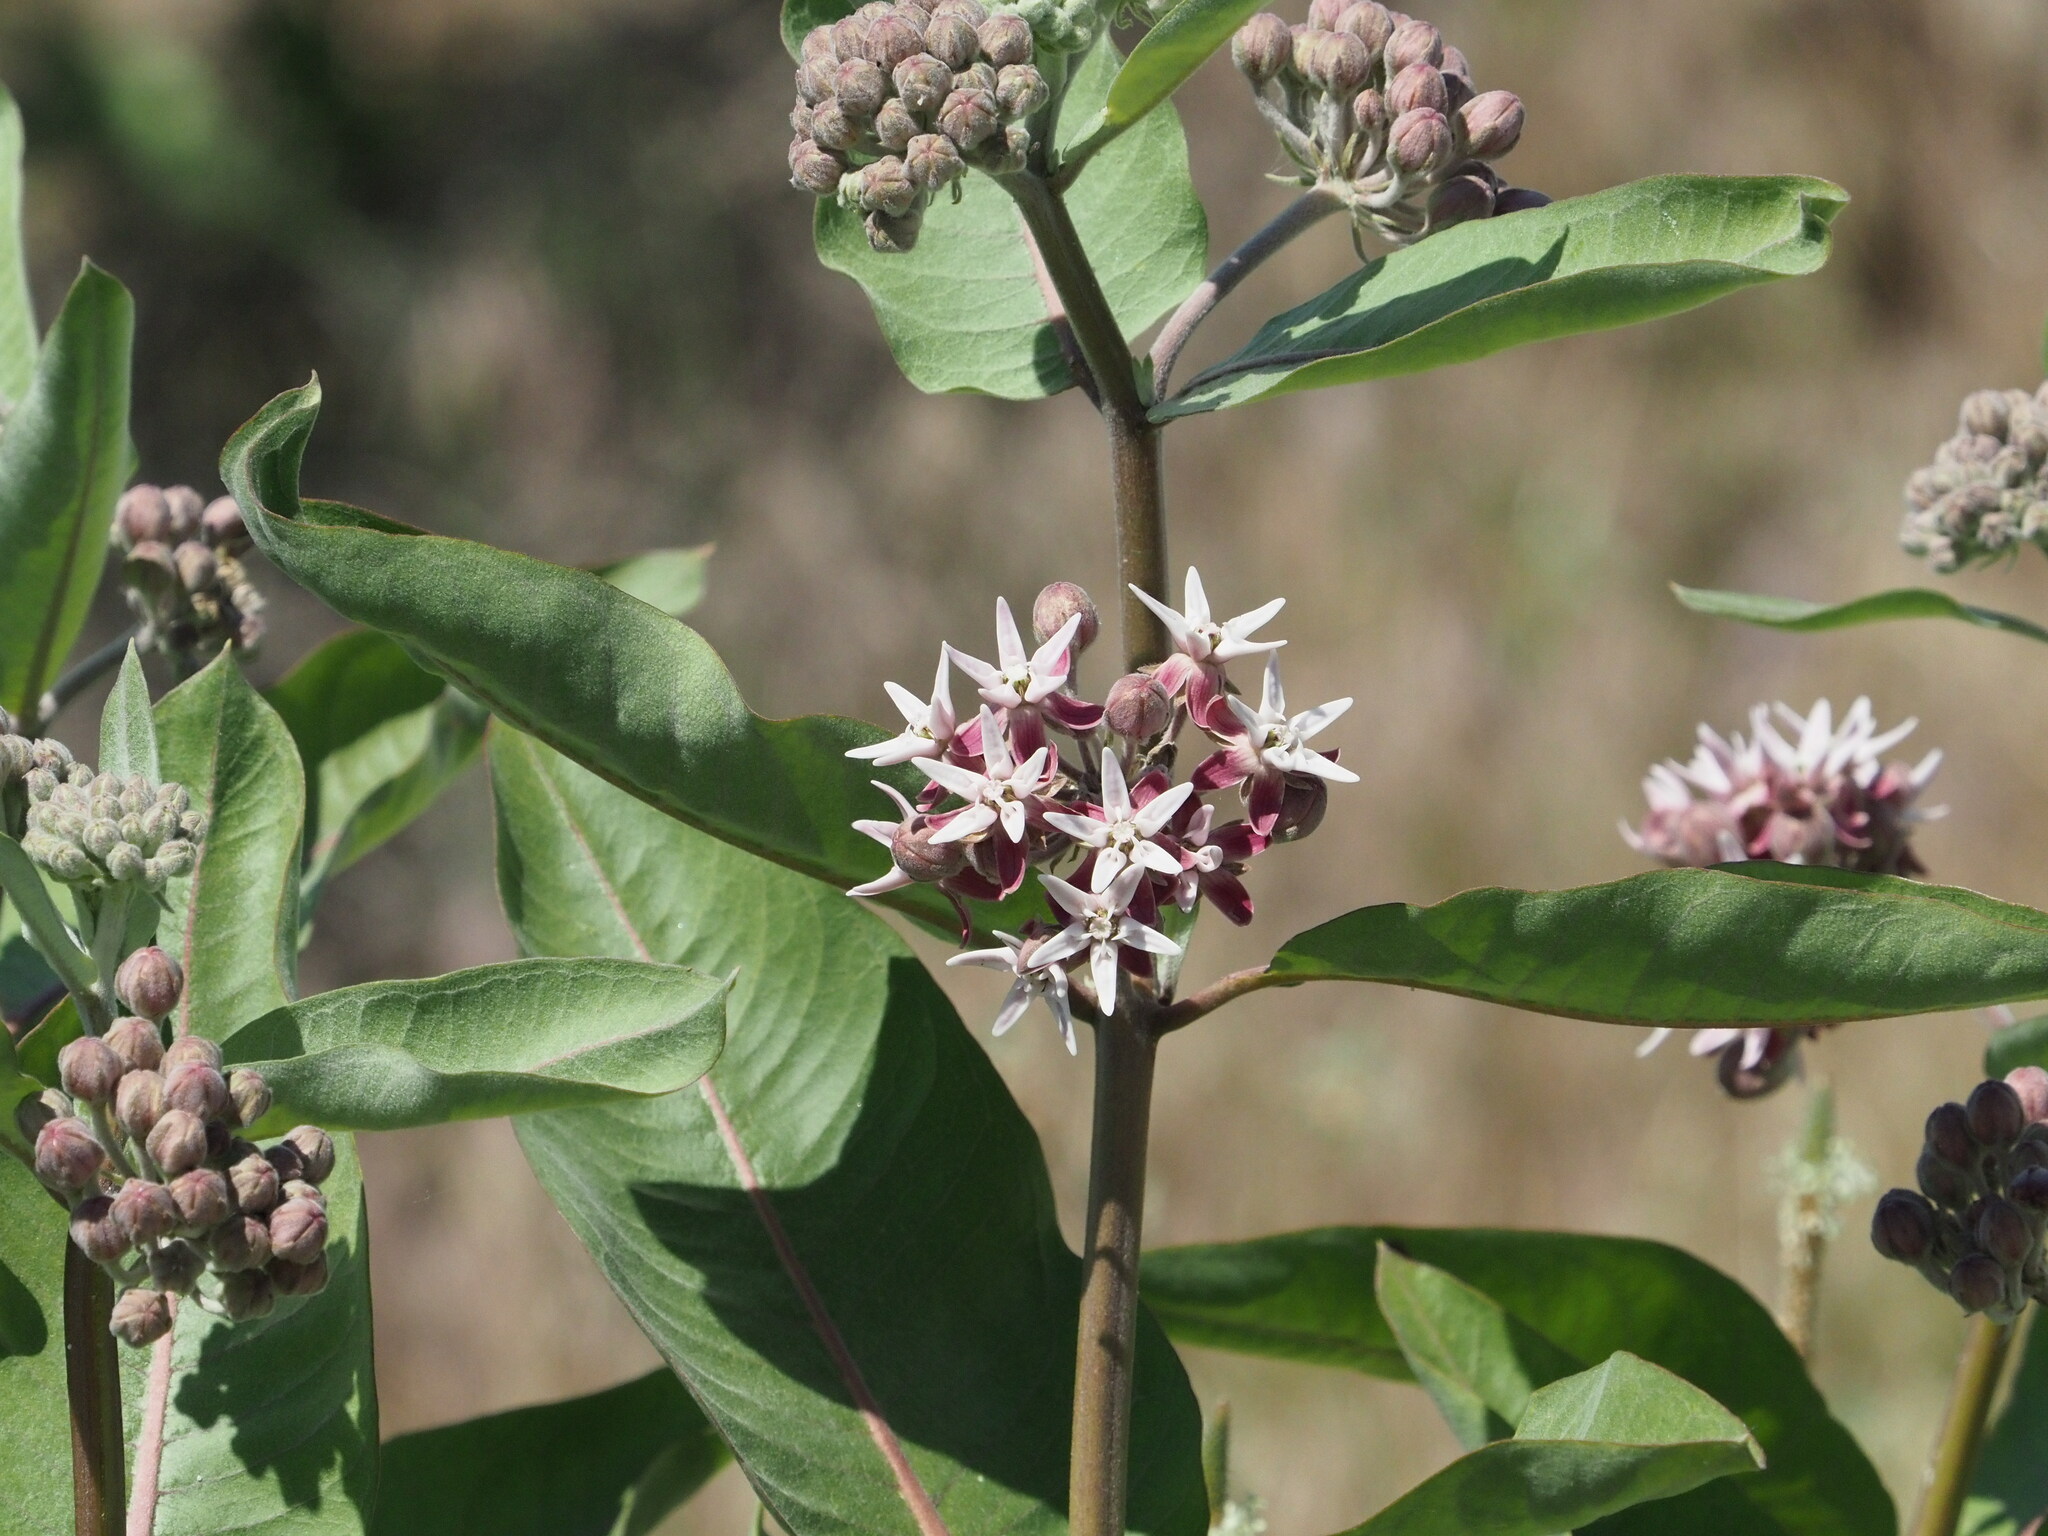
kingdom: Plantae
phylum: Tracheophyta
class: Magnoliopsida
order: Gentianales
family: Apocynaceae
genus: Asclepias
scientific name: Asclepias speciosa
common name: Showy milkweed
